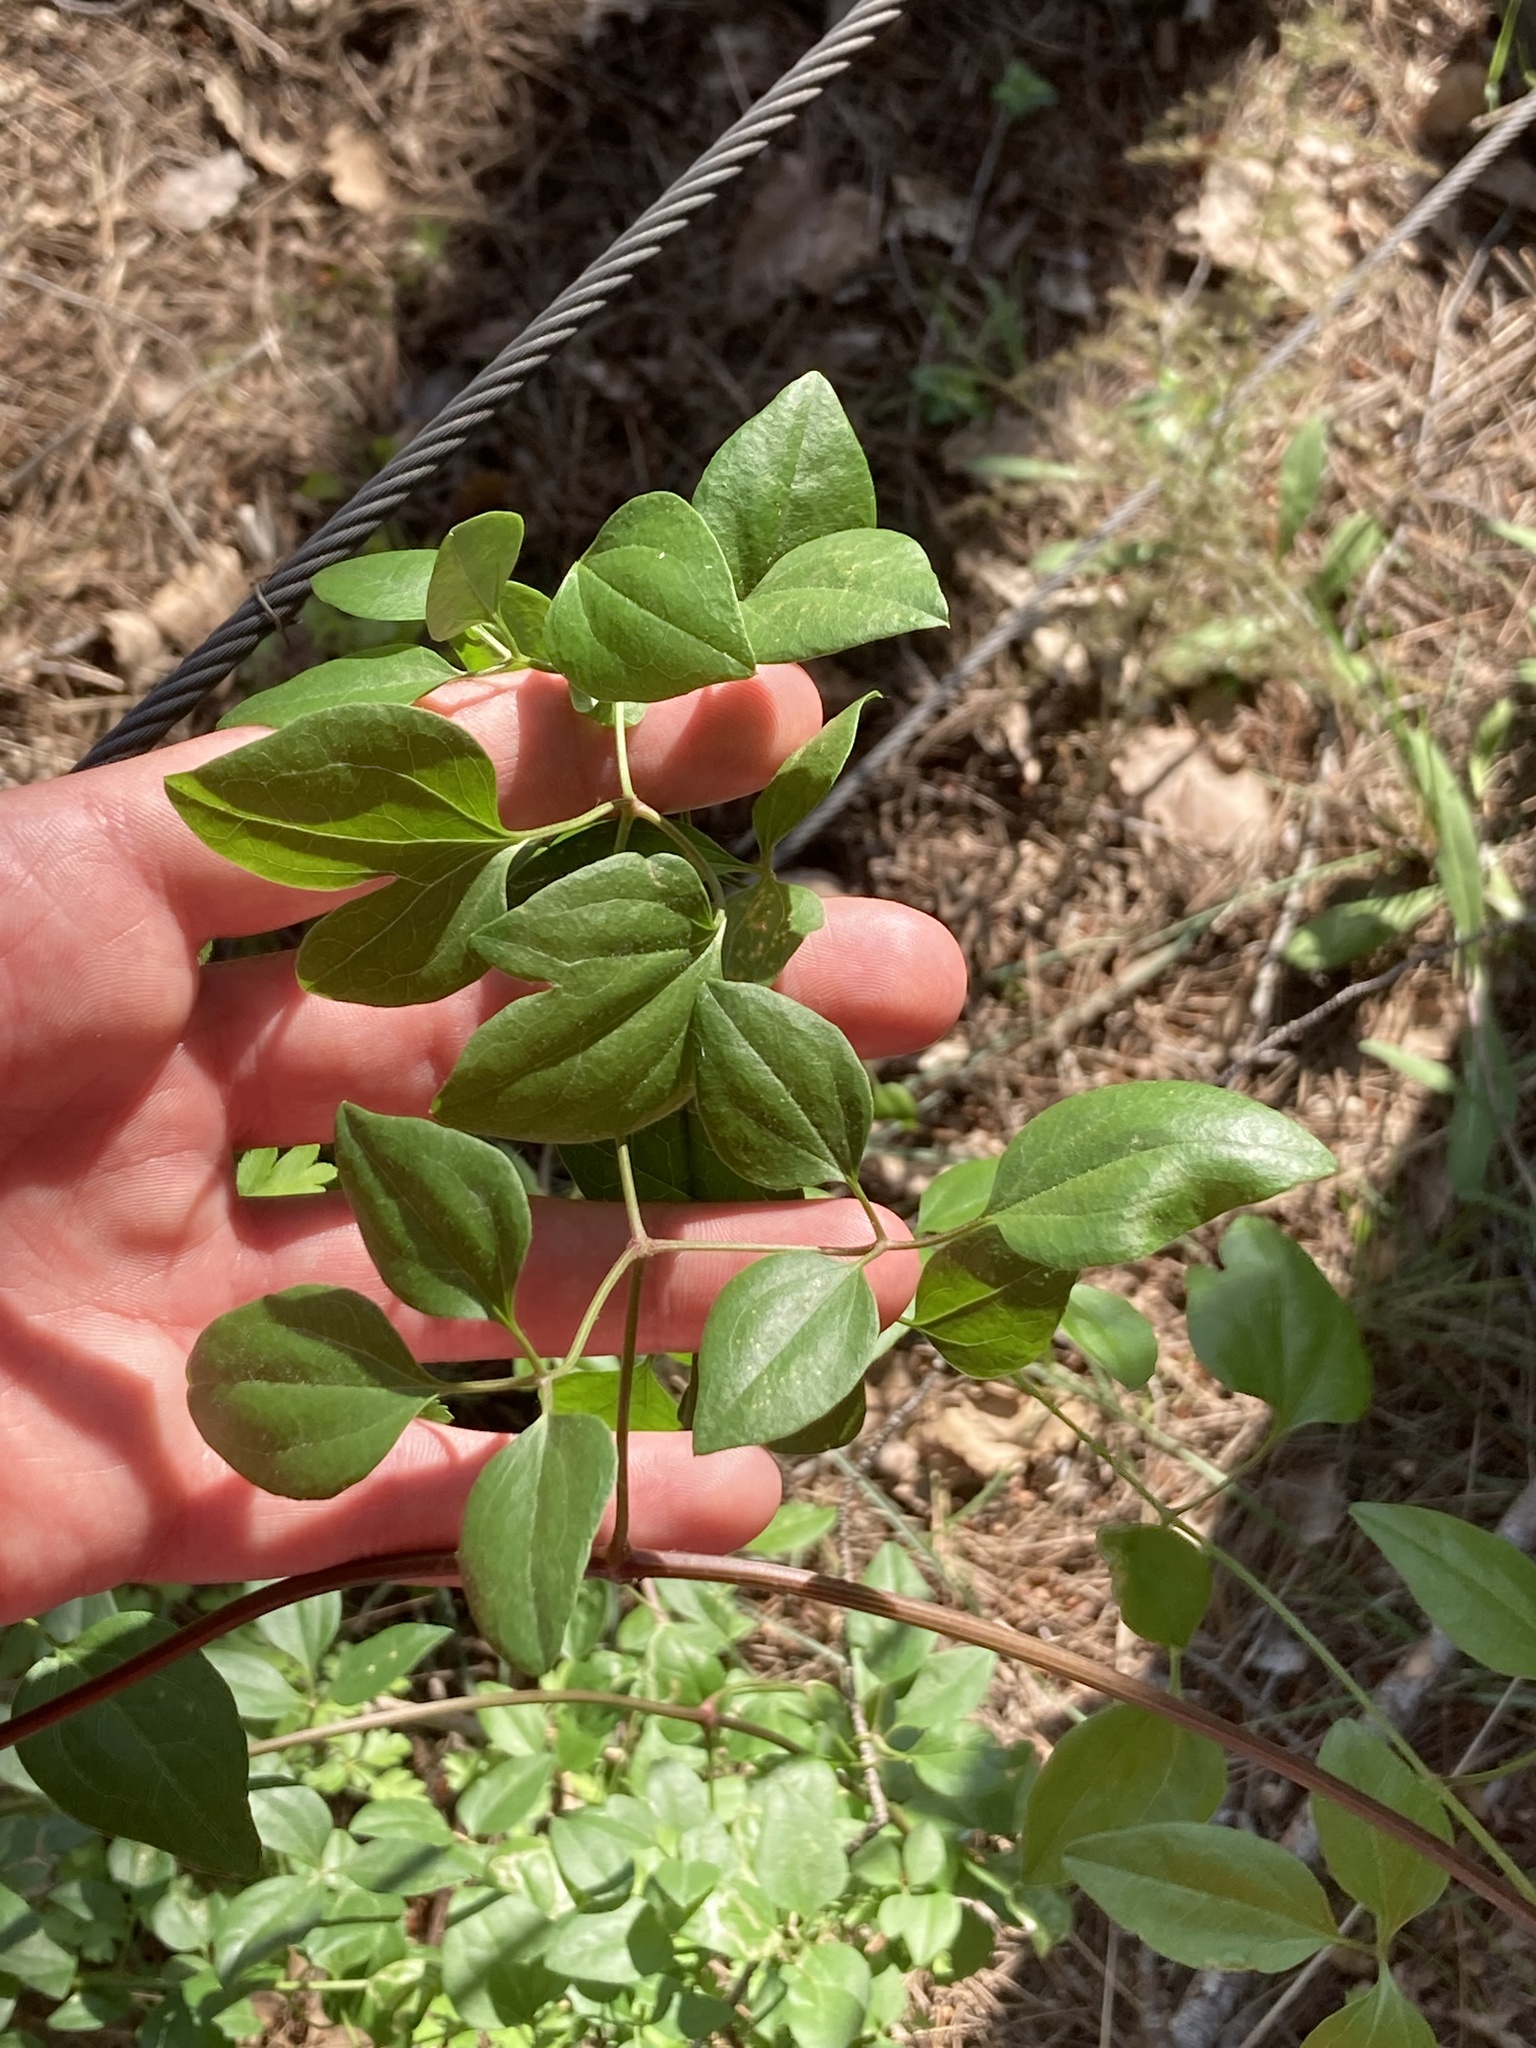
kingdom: Plantae
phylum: Tracheophyta
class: Magnoliopsida
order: Ranunculales
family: Ranunculaceae
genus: Clematis
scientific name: Clematis flammula
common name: Virgin's-bower
